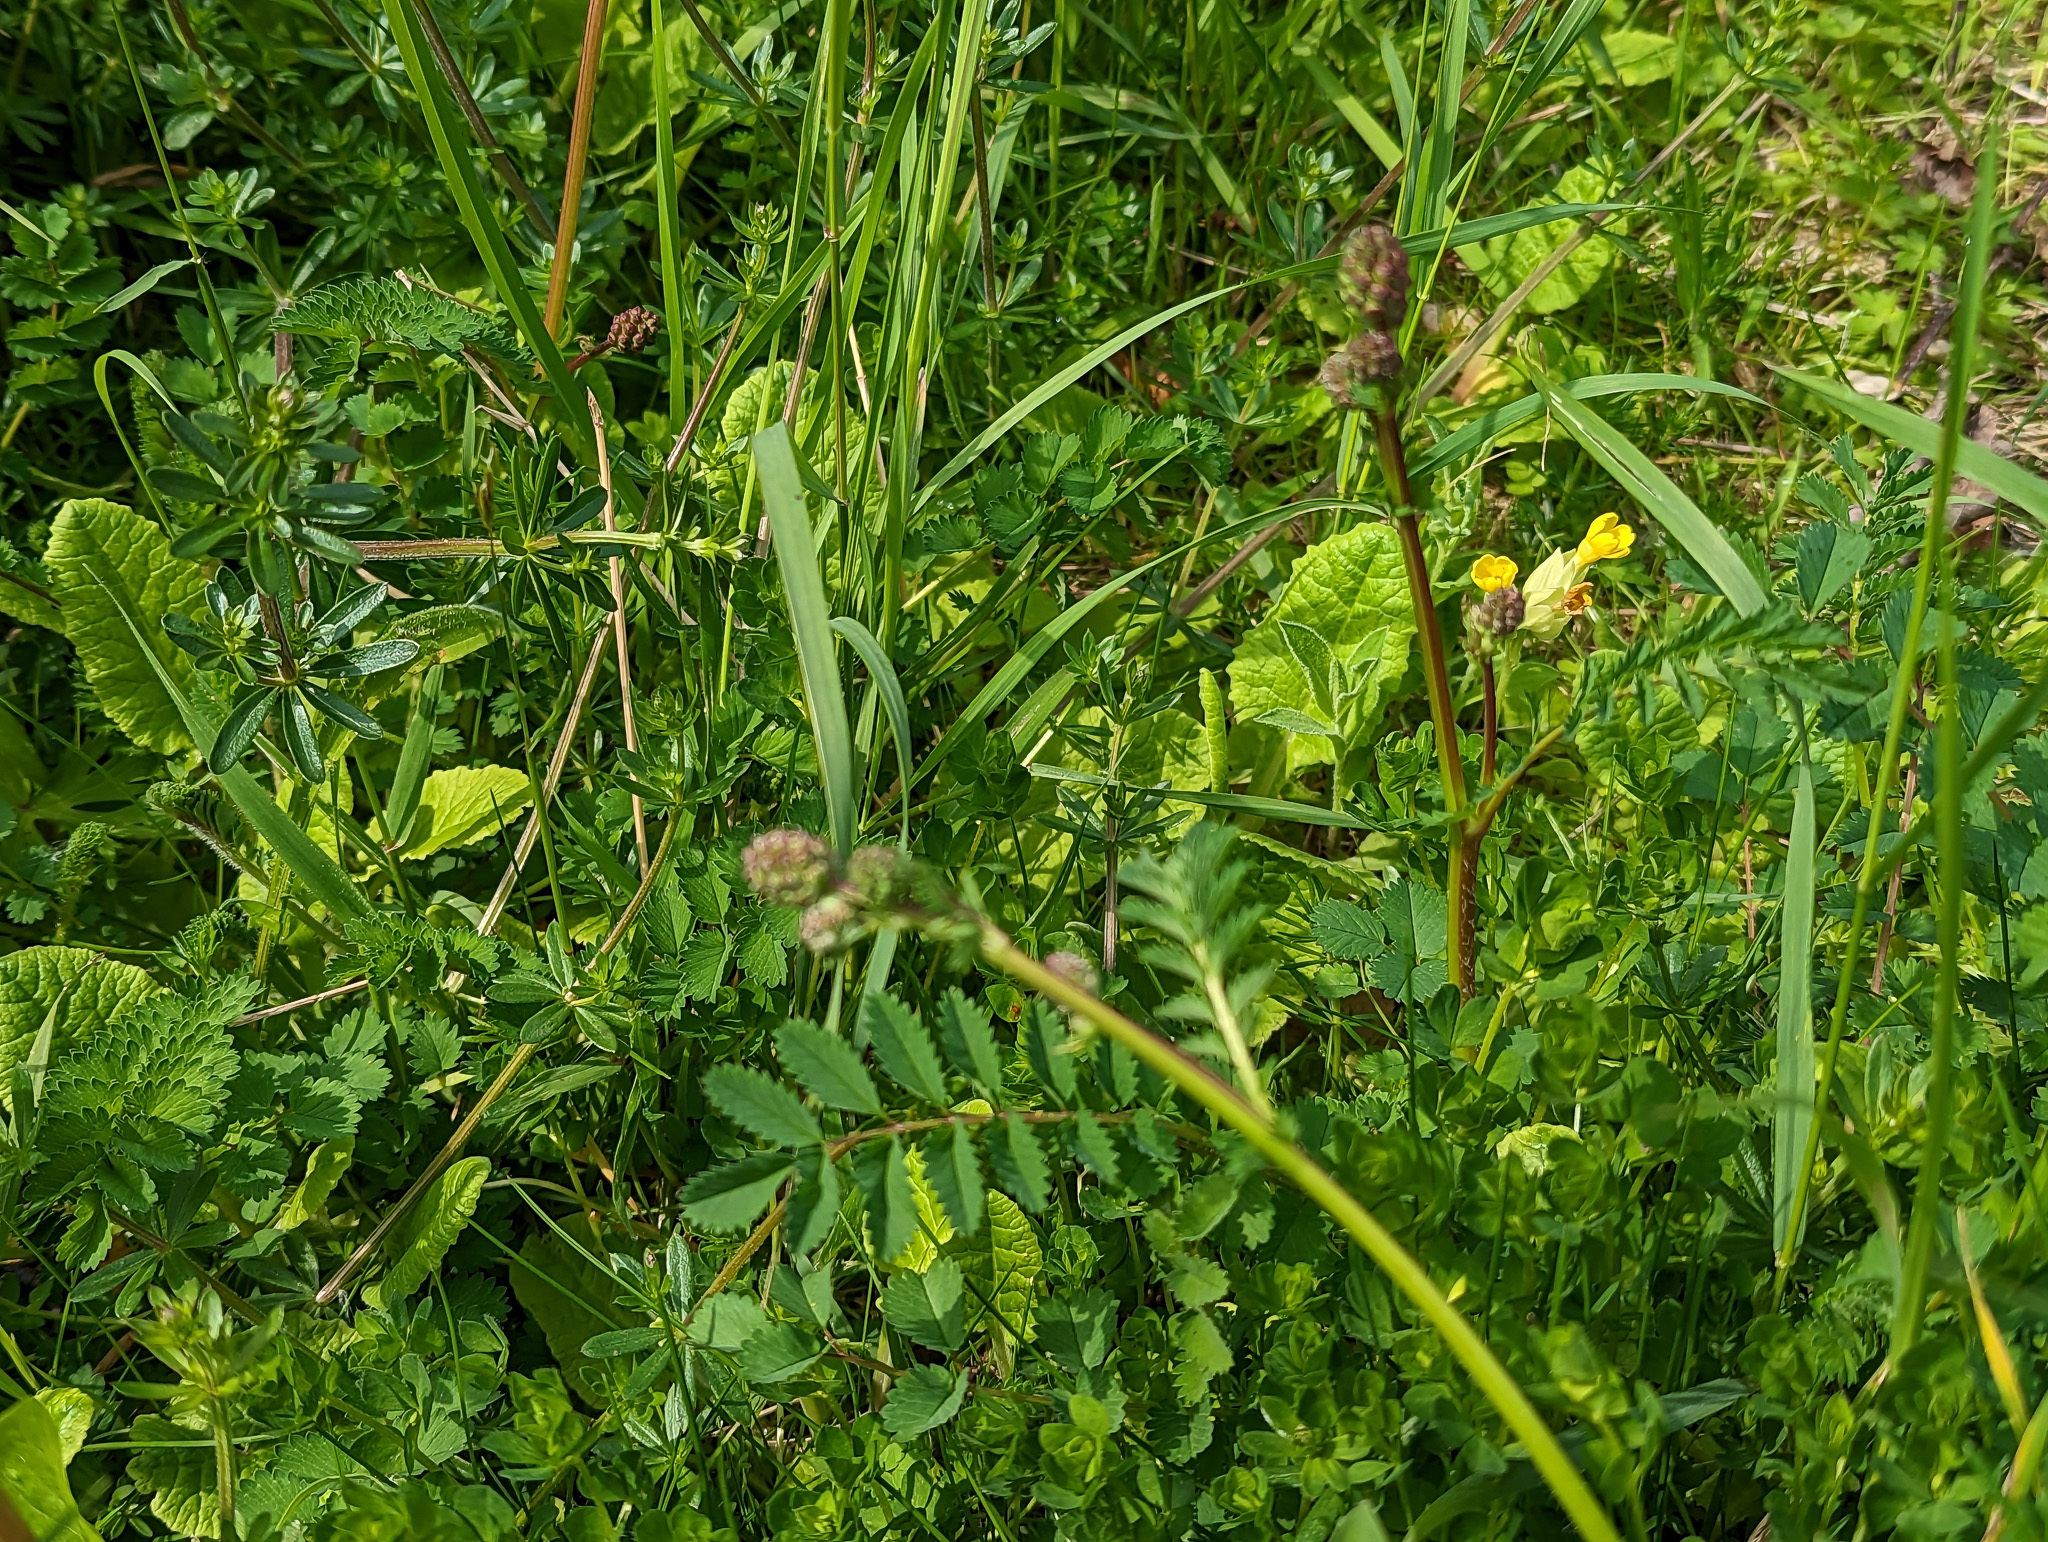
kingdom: Plantae
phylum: Tracheophyta
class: Magnoliopsida
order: Rosales
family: Rosaceae
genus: Poterium
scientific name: Poterium sanguisorba
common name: Salad burnet
